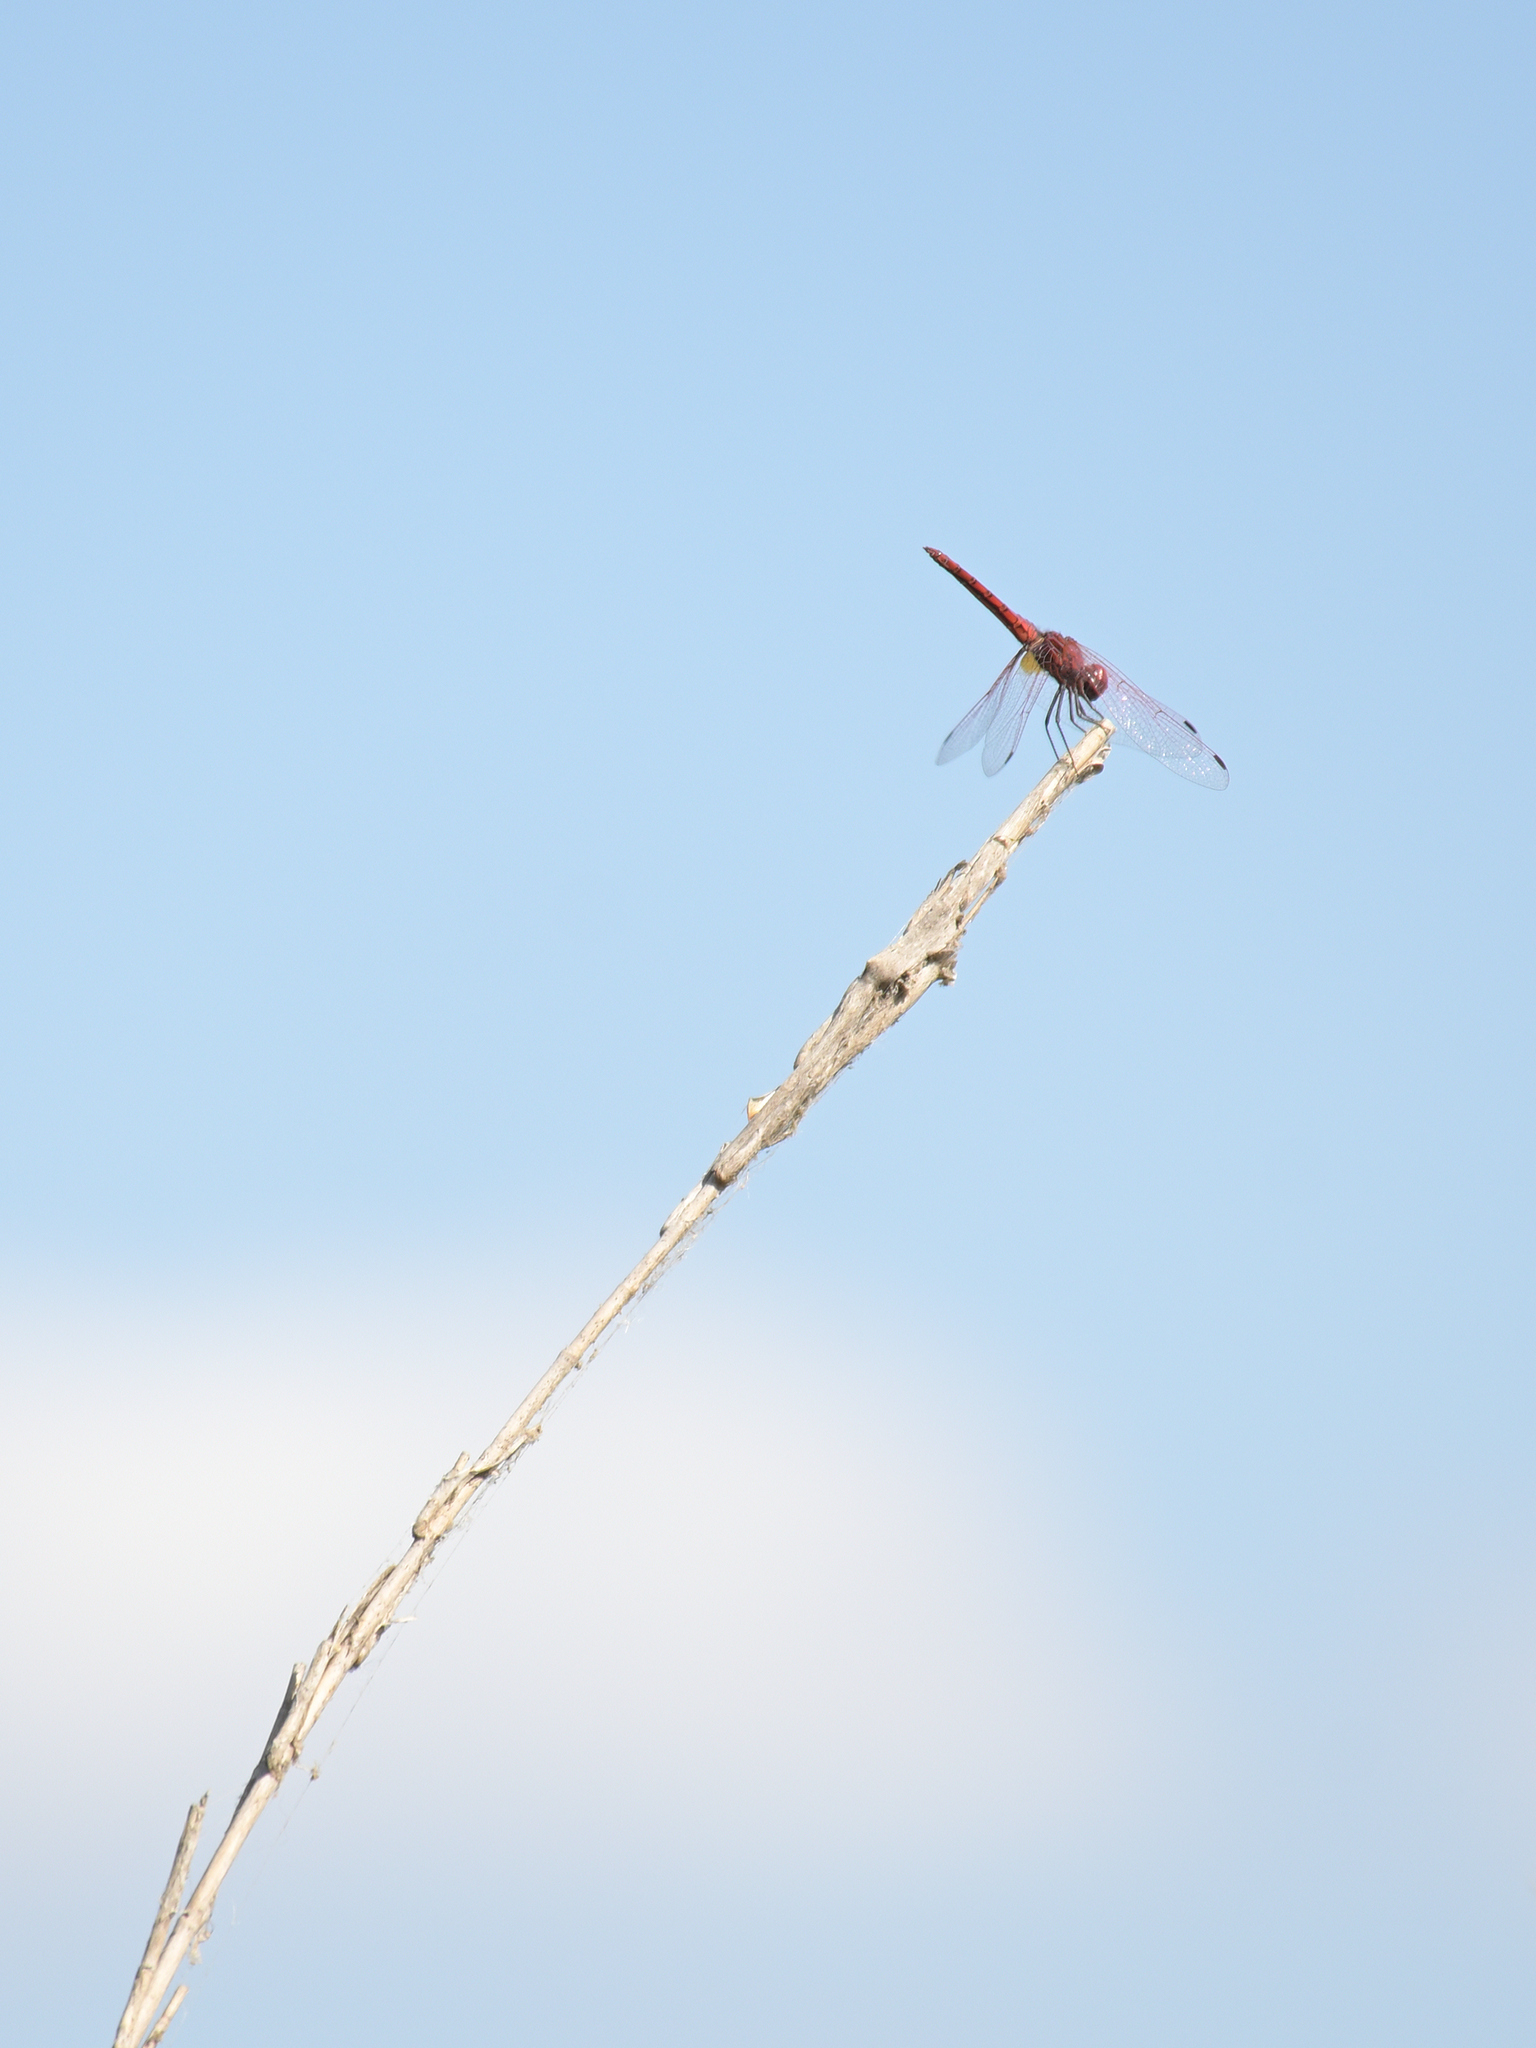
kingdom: Animalia
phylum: Arthropoda
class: Insecta
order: Odonata
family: Libellulidae
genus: Trithemis
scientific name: Trithemis annulata
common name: Violet dropwing
